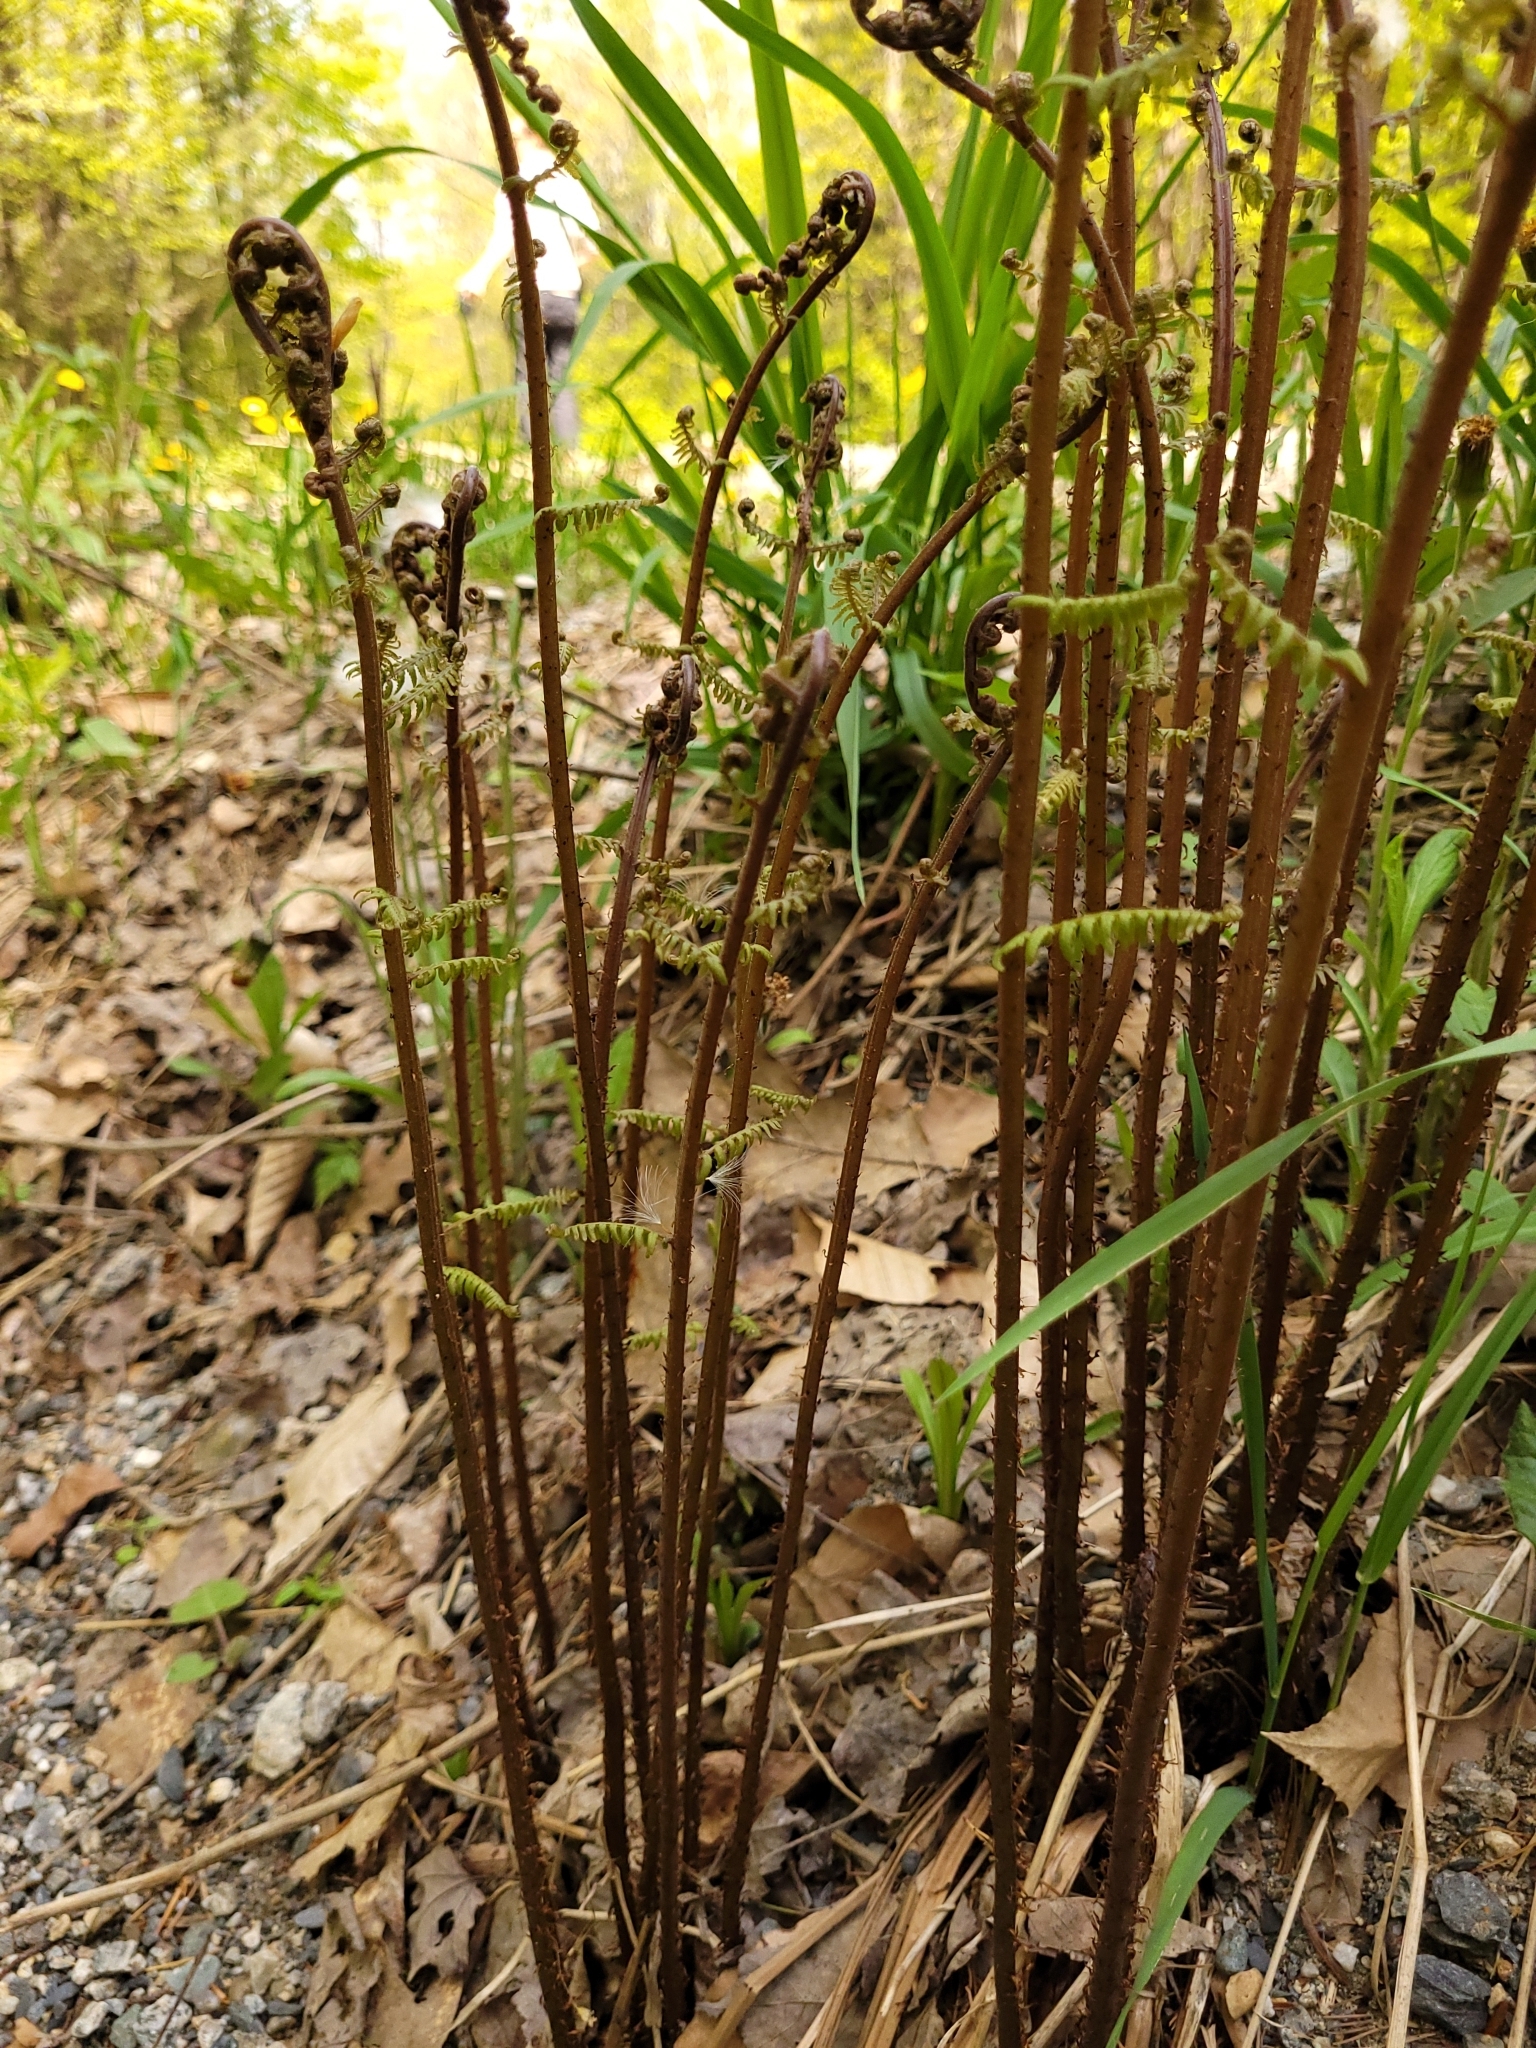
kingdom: Plantae
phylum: Tracheophyta
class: Polypodiopsida
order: Polypodiales
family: Athyriaceae
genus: Athyrium
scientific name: Athyrium angustum
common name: Northern lady fern
